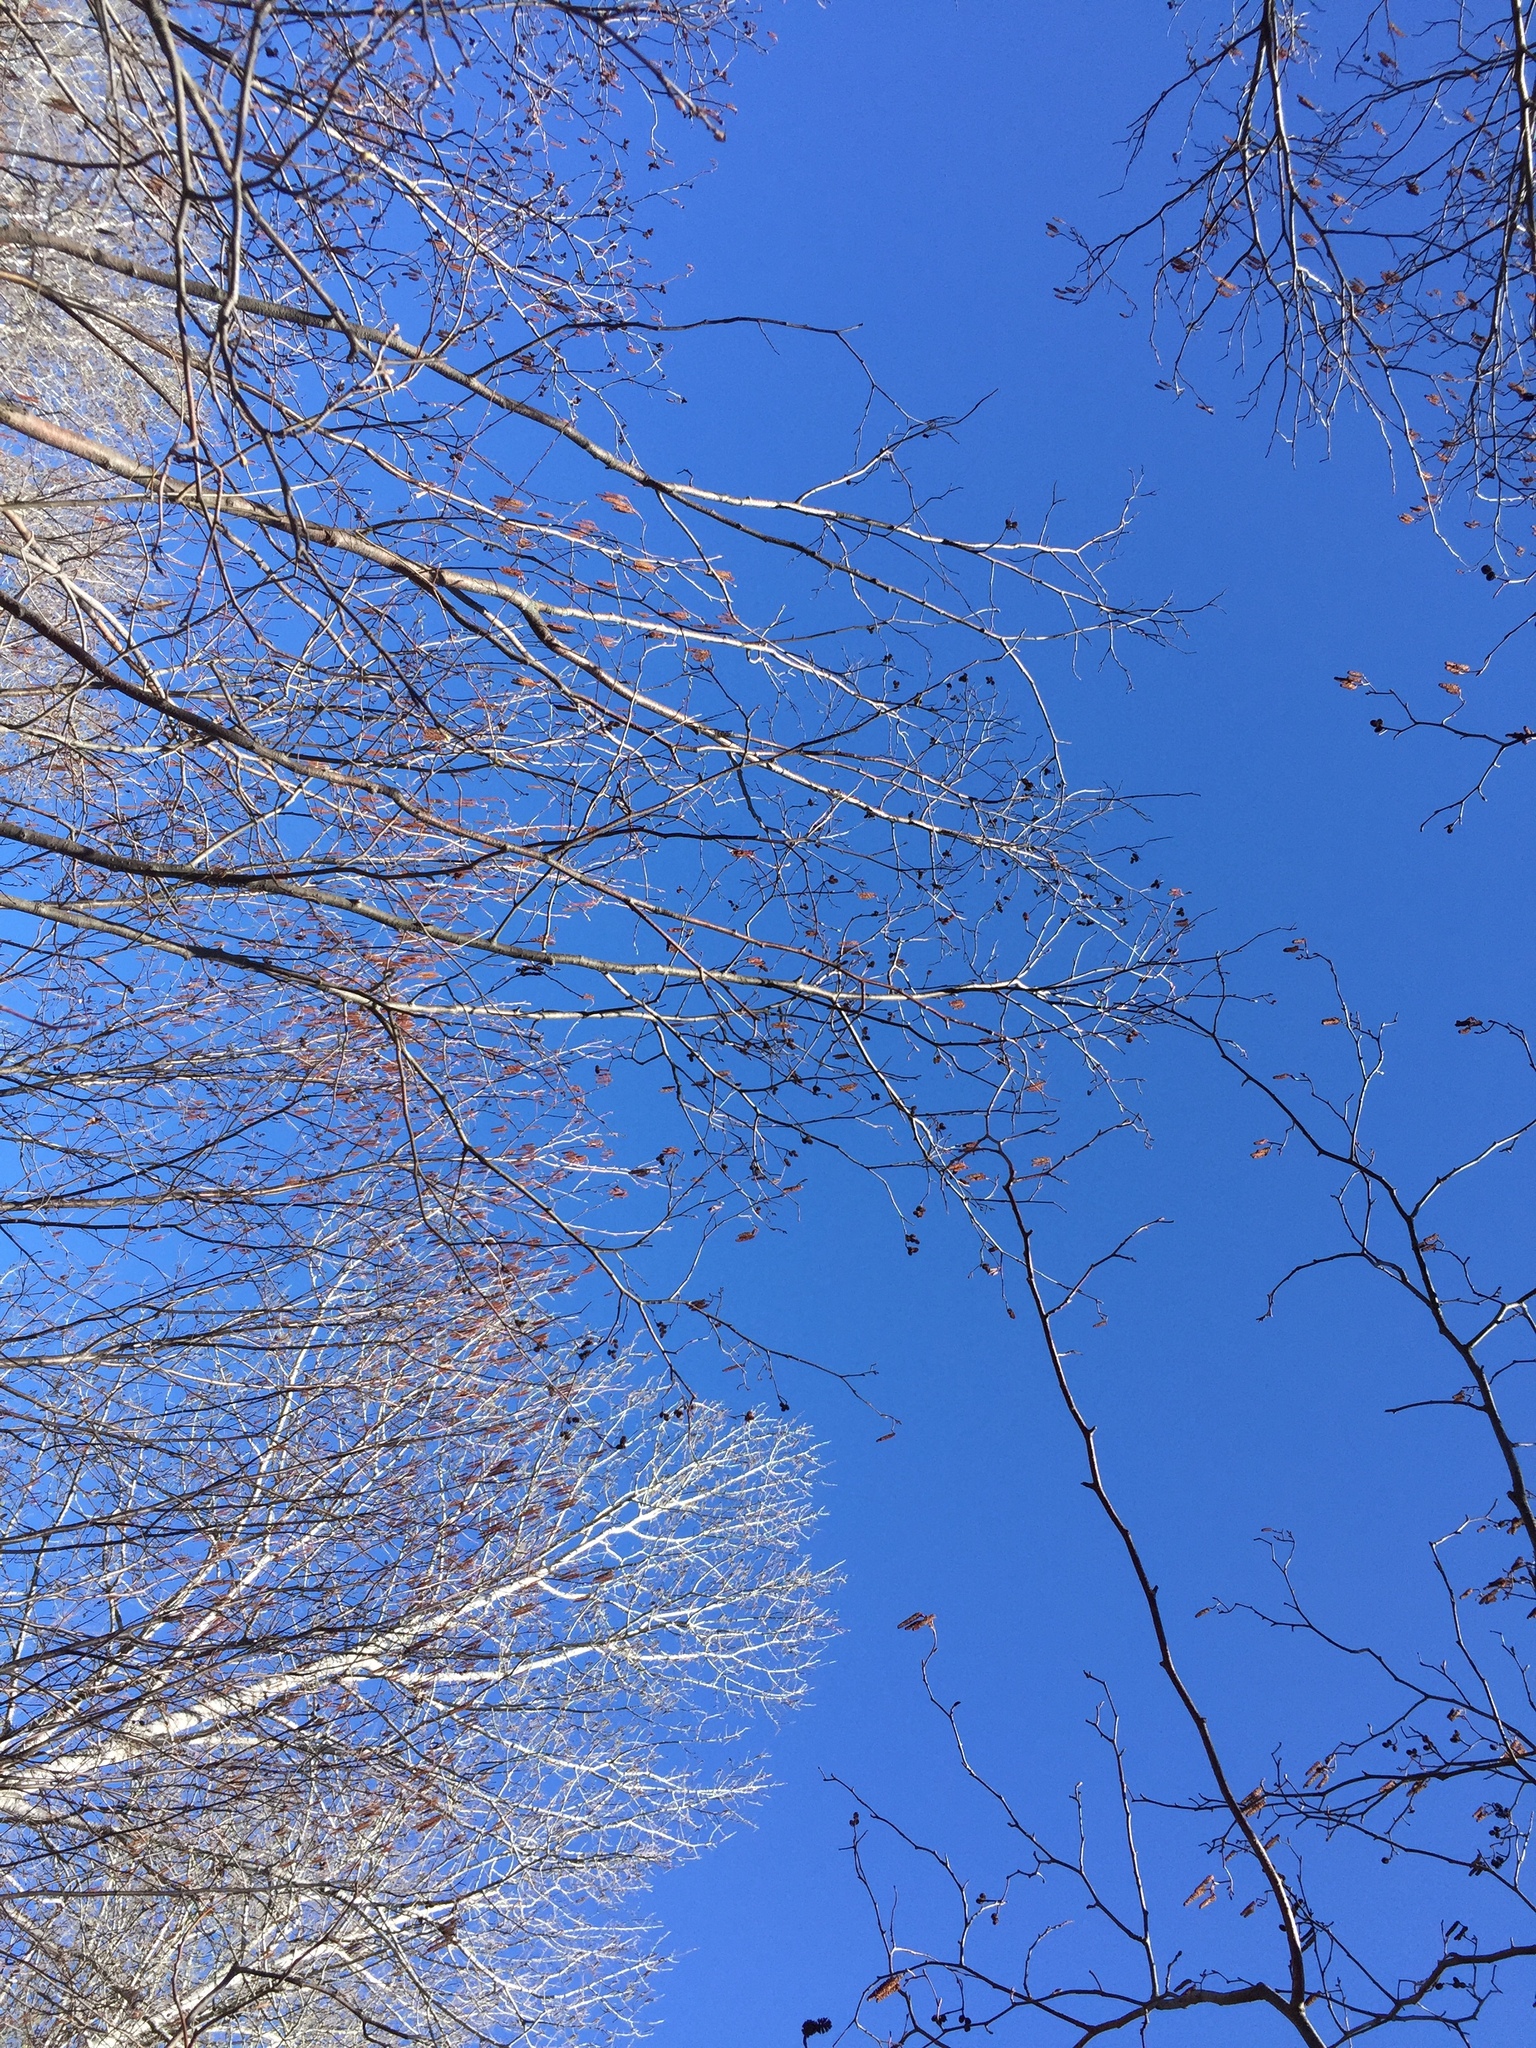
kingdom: Plantae
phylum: Tracheophyta
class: Magnoliopsida
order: Fagales
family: Betulaceae
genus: Alnus
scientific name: Alnus incana
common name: Grey alder
